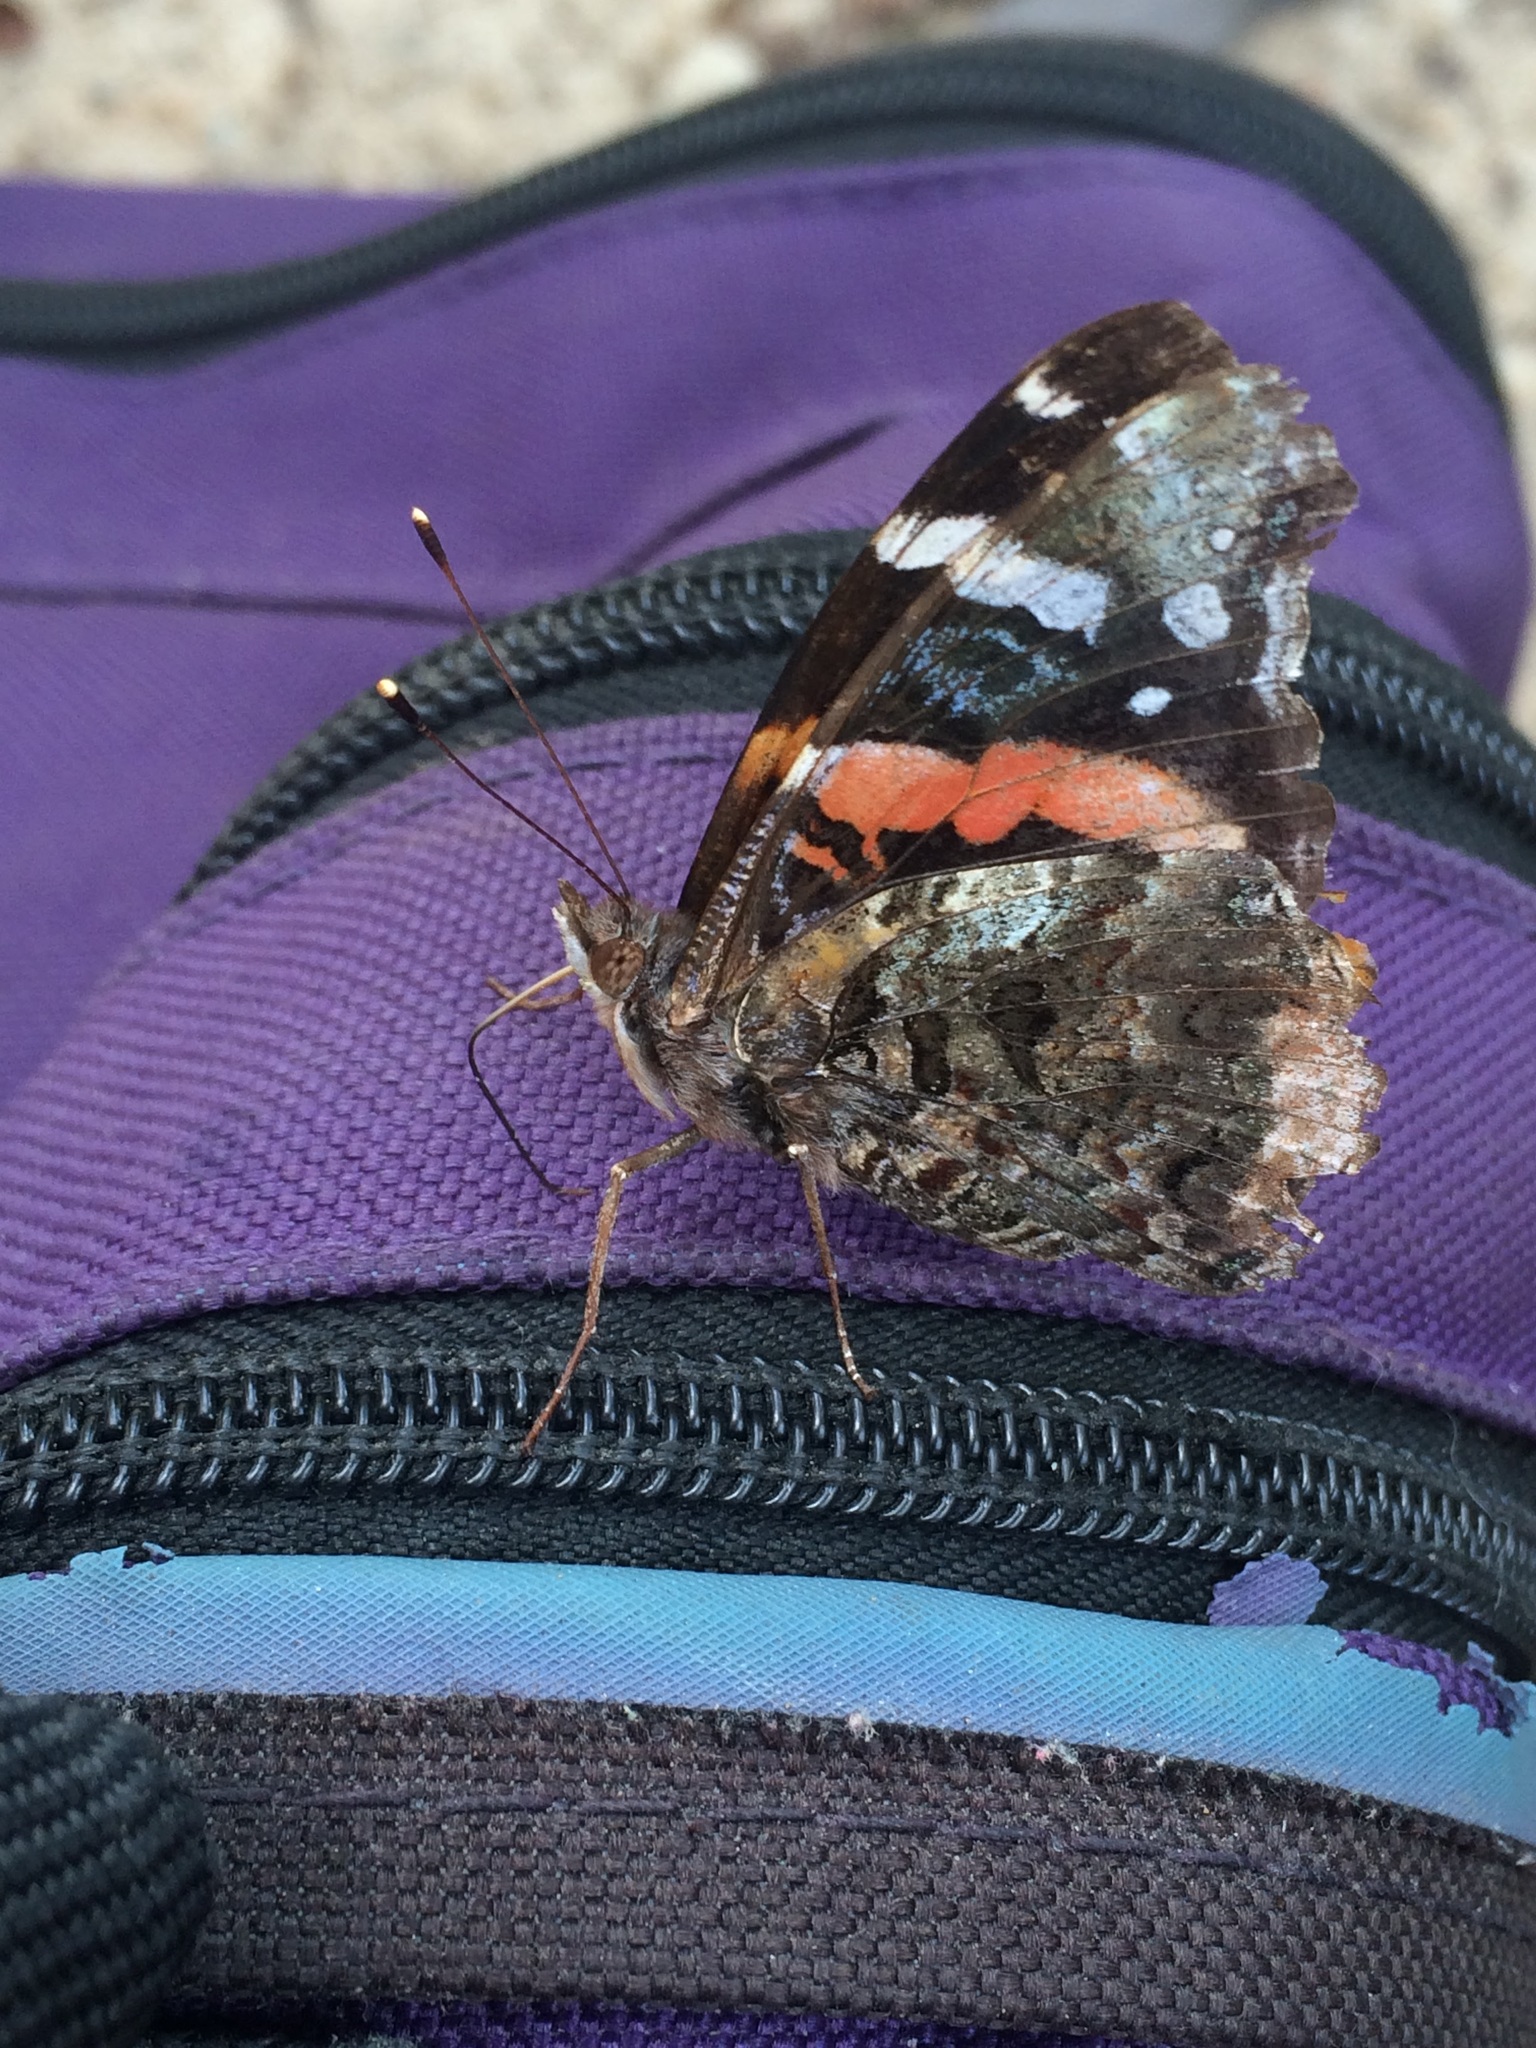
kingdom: Animalia
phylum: Arthropoda
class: Insecta
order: Lepidoptera
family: Nymphalidae
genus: Vanessa
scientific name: Vanessa atalanta
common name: Red admiral
